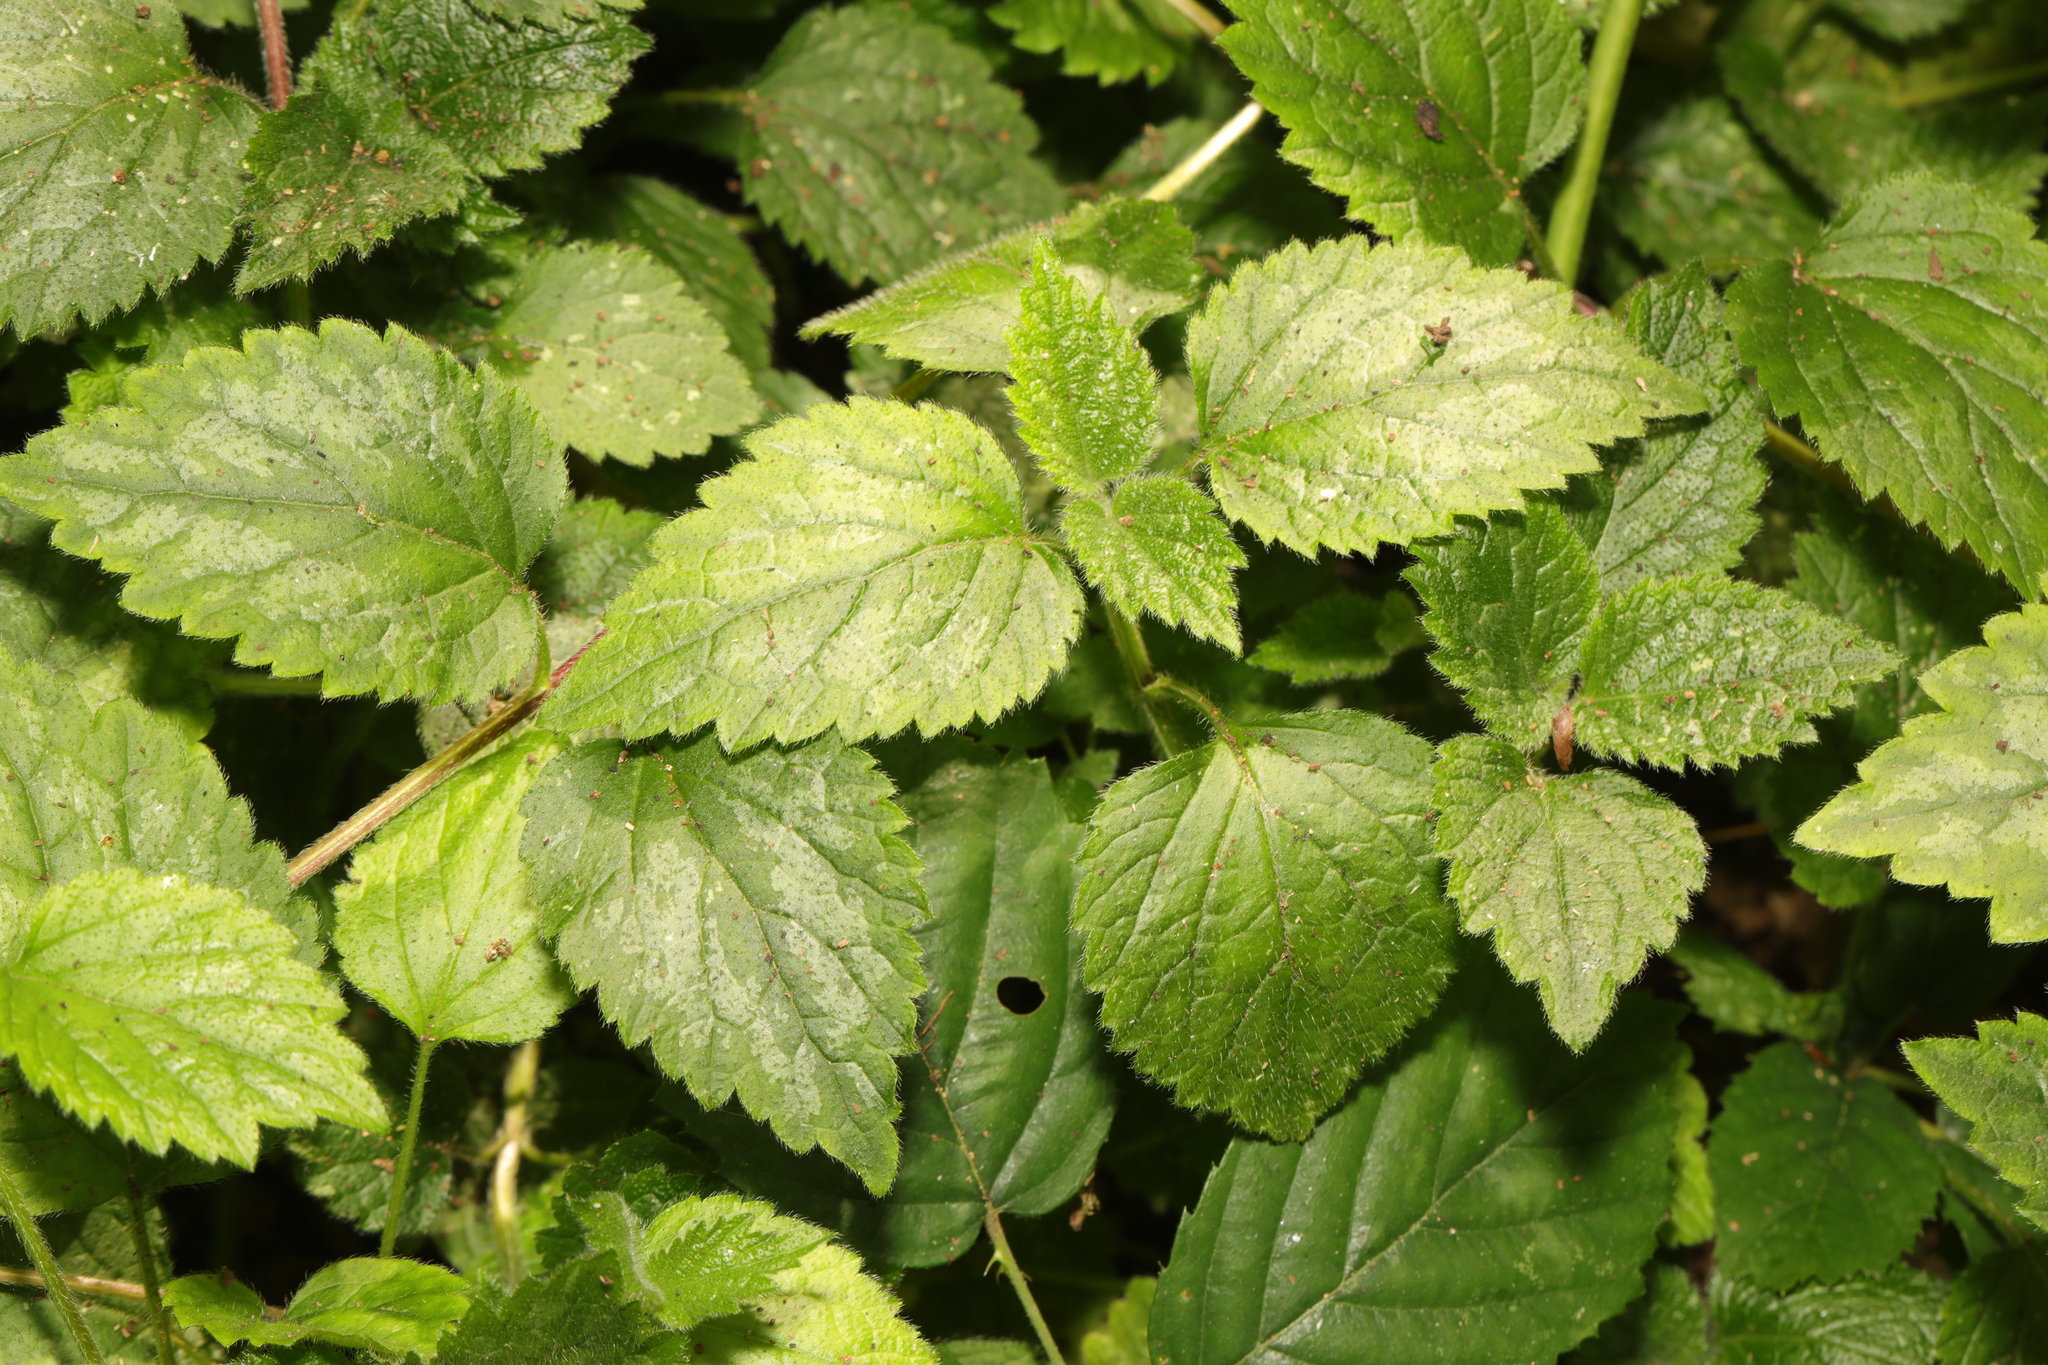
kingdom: Plantae
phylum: Tracheophyta
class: Magnoliopsida
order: Lamiales
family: Lamiaceae
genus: Lamium
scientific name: Lamium galeobdolon
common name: Yellow archangel
